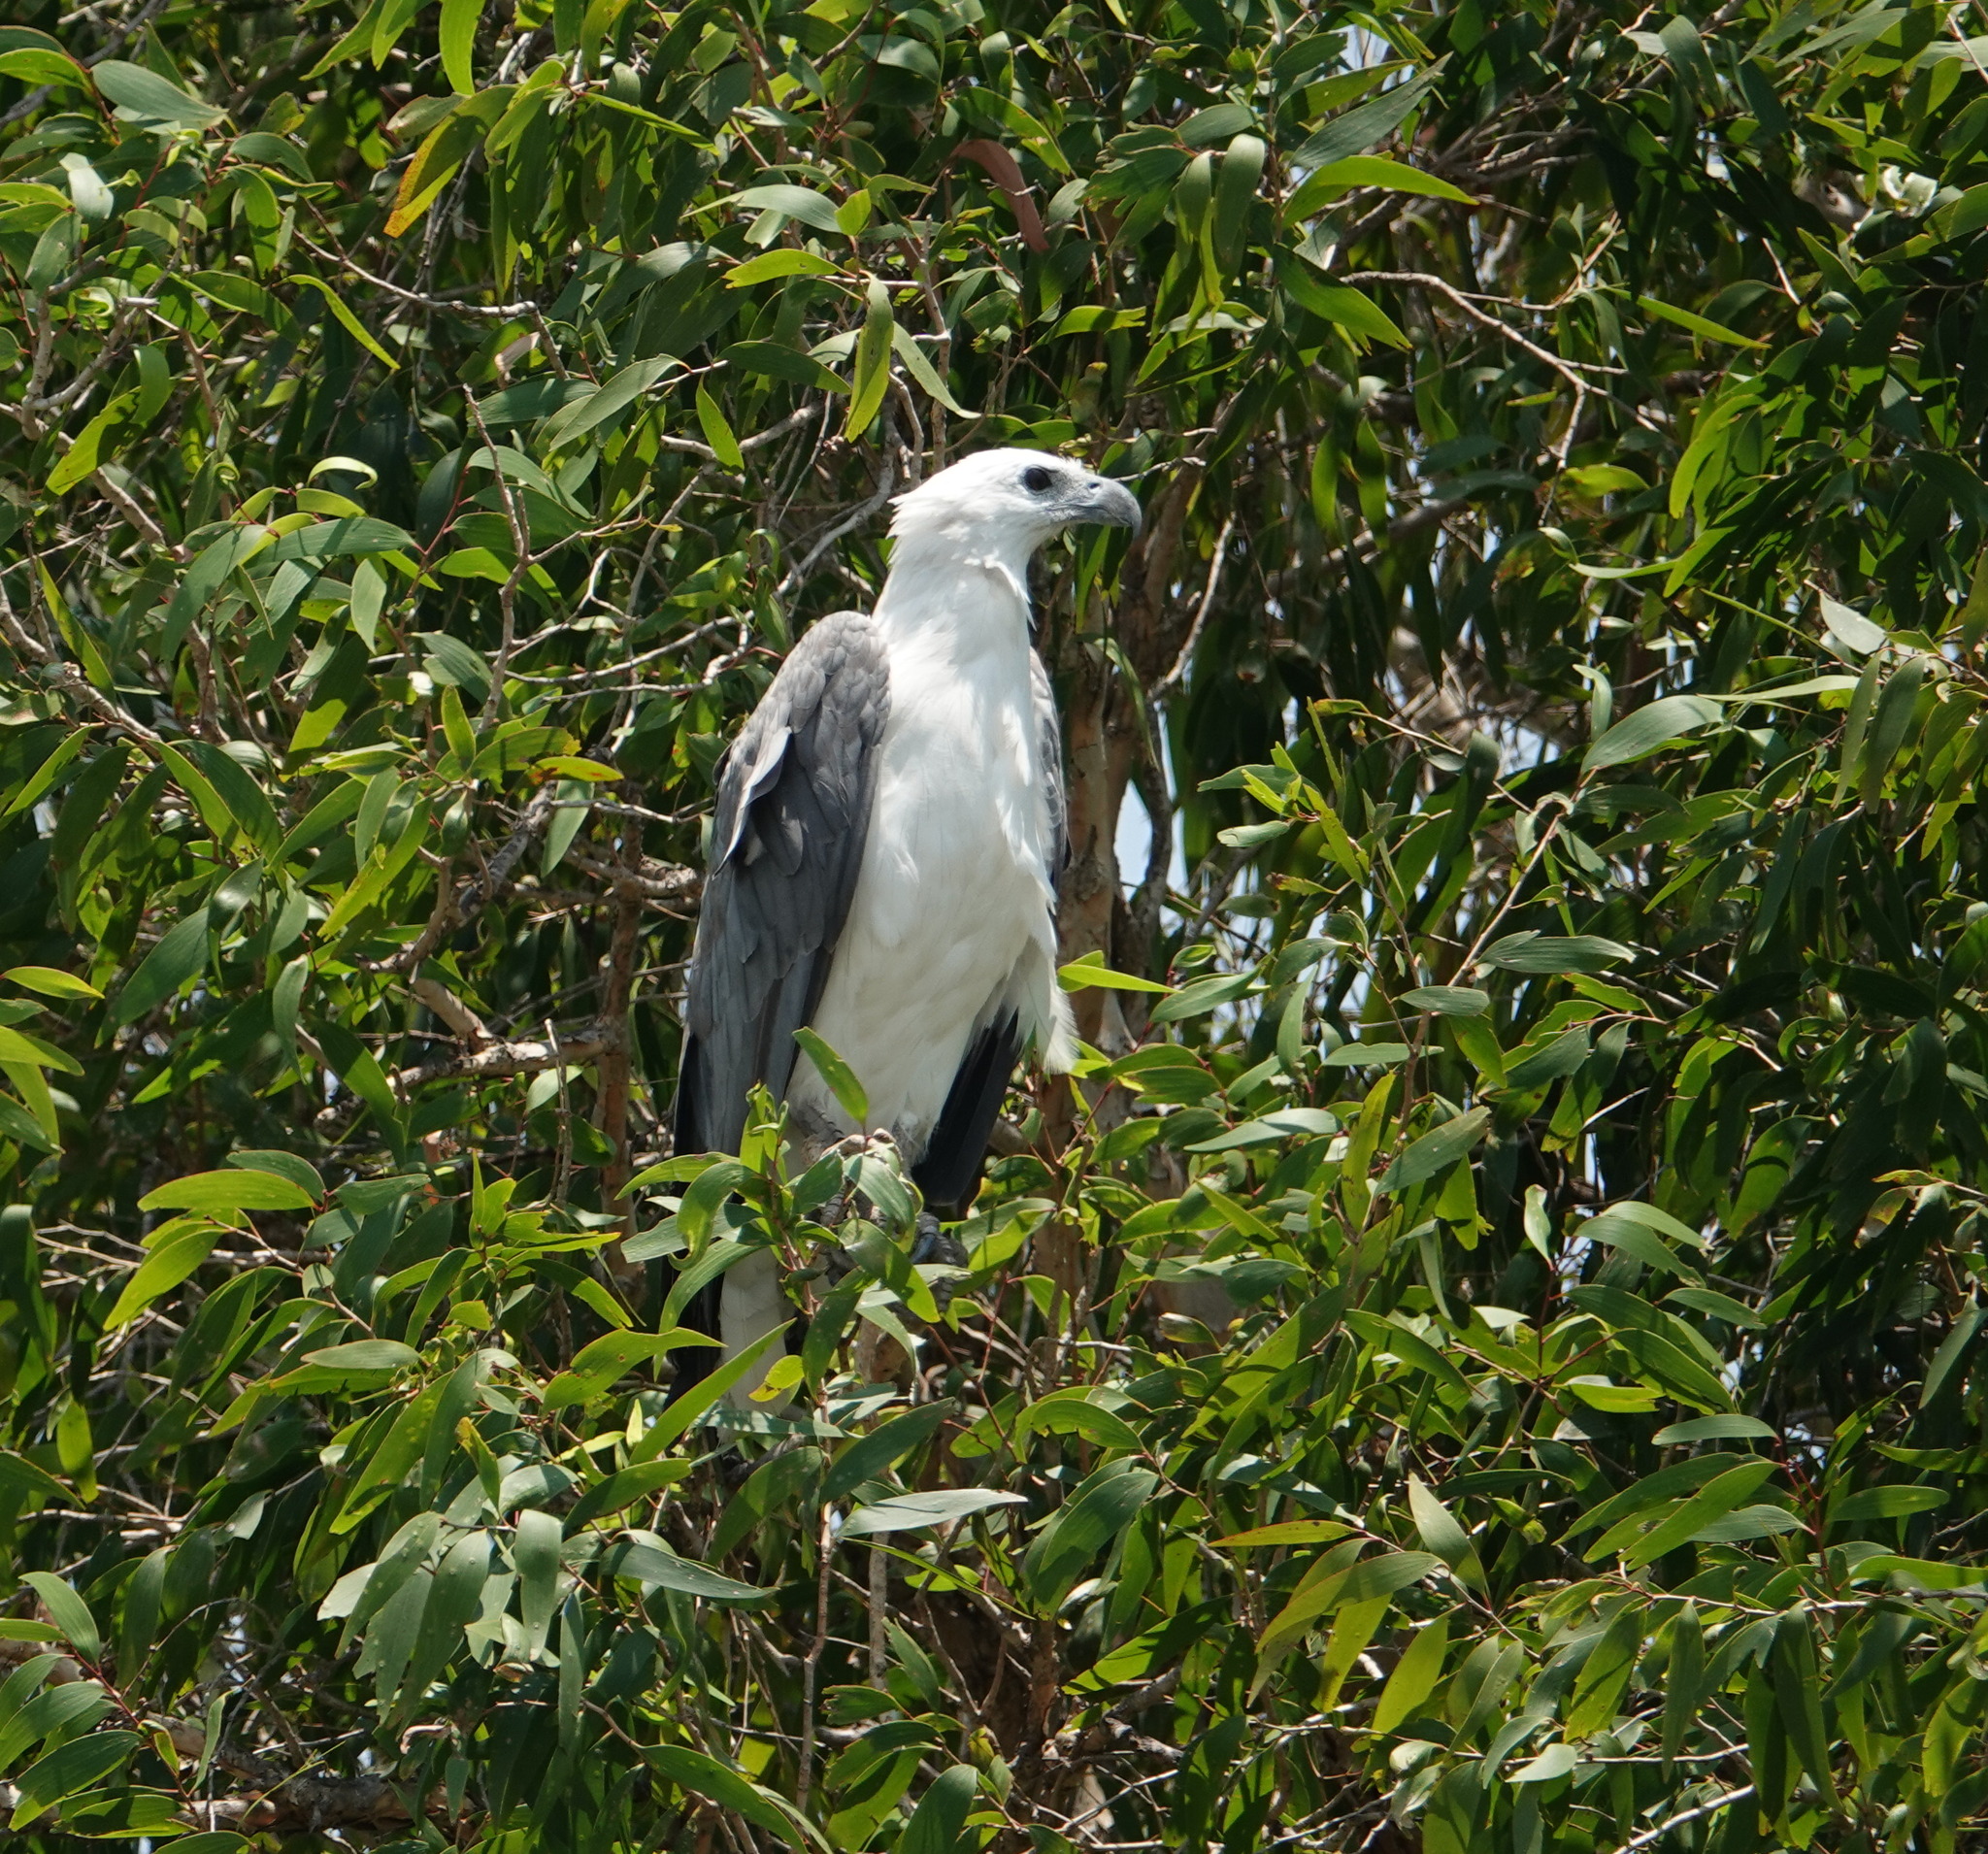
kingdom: Animalia
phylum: Chordata
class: Aves
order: Accipitriformes
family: Accipitridae
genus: Haliaeetus
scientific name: Haliaeetus leucogaster
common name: White-bellied sea eagle
